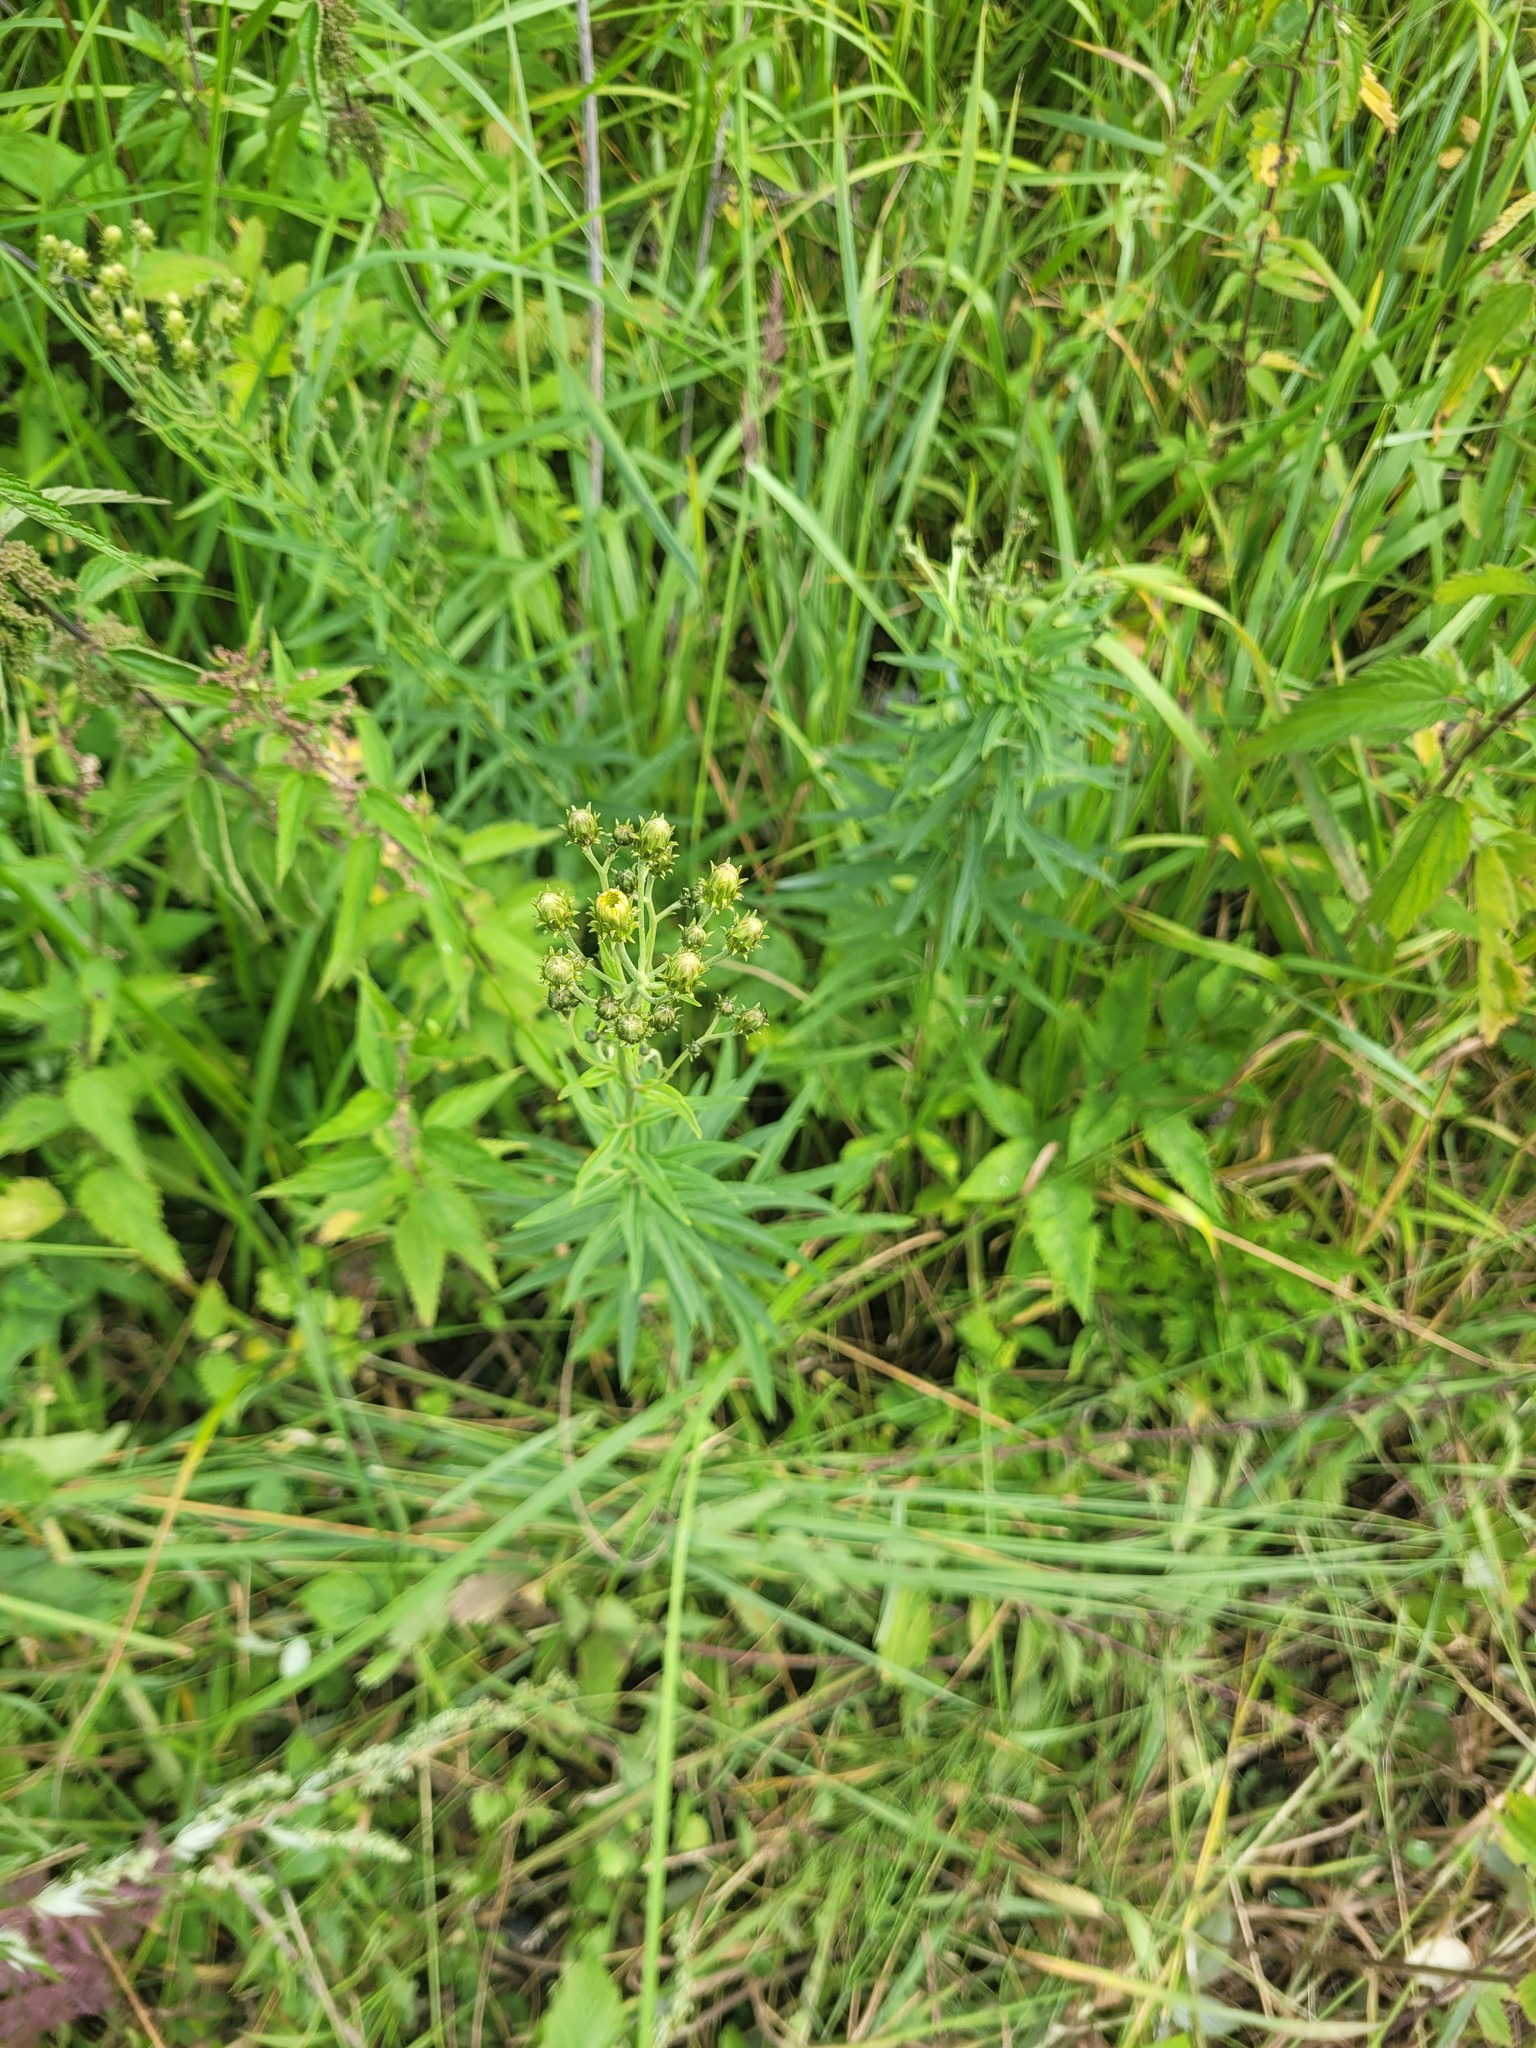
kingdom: Plantae
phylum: Tracheophyta
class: Magnoliopsida
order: Asterales
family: Asteraceae
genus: Hieracium
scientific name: Hieracium umbellatum
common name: Northern hawkweed
